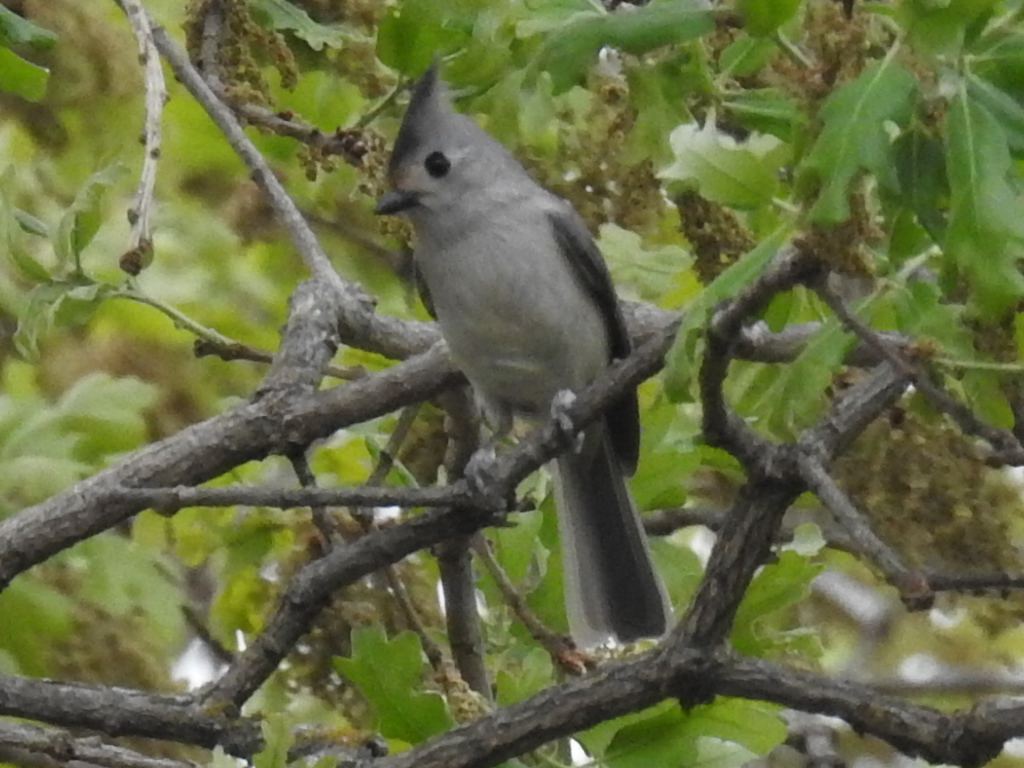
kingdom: Animalia
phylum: Chordata
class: Aves
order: Passeriformes
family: Paridae
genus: Baeolophus
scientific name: Baeolophus
